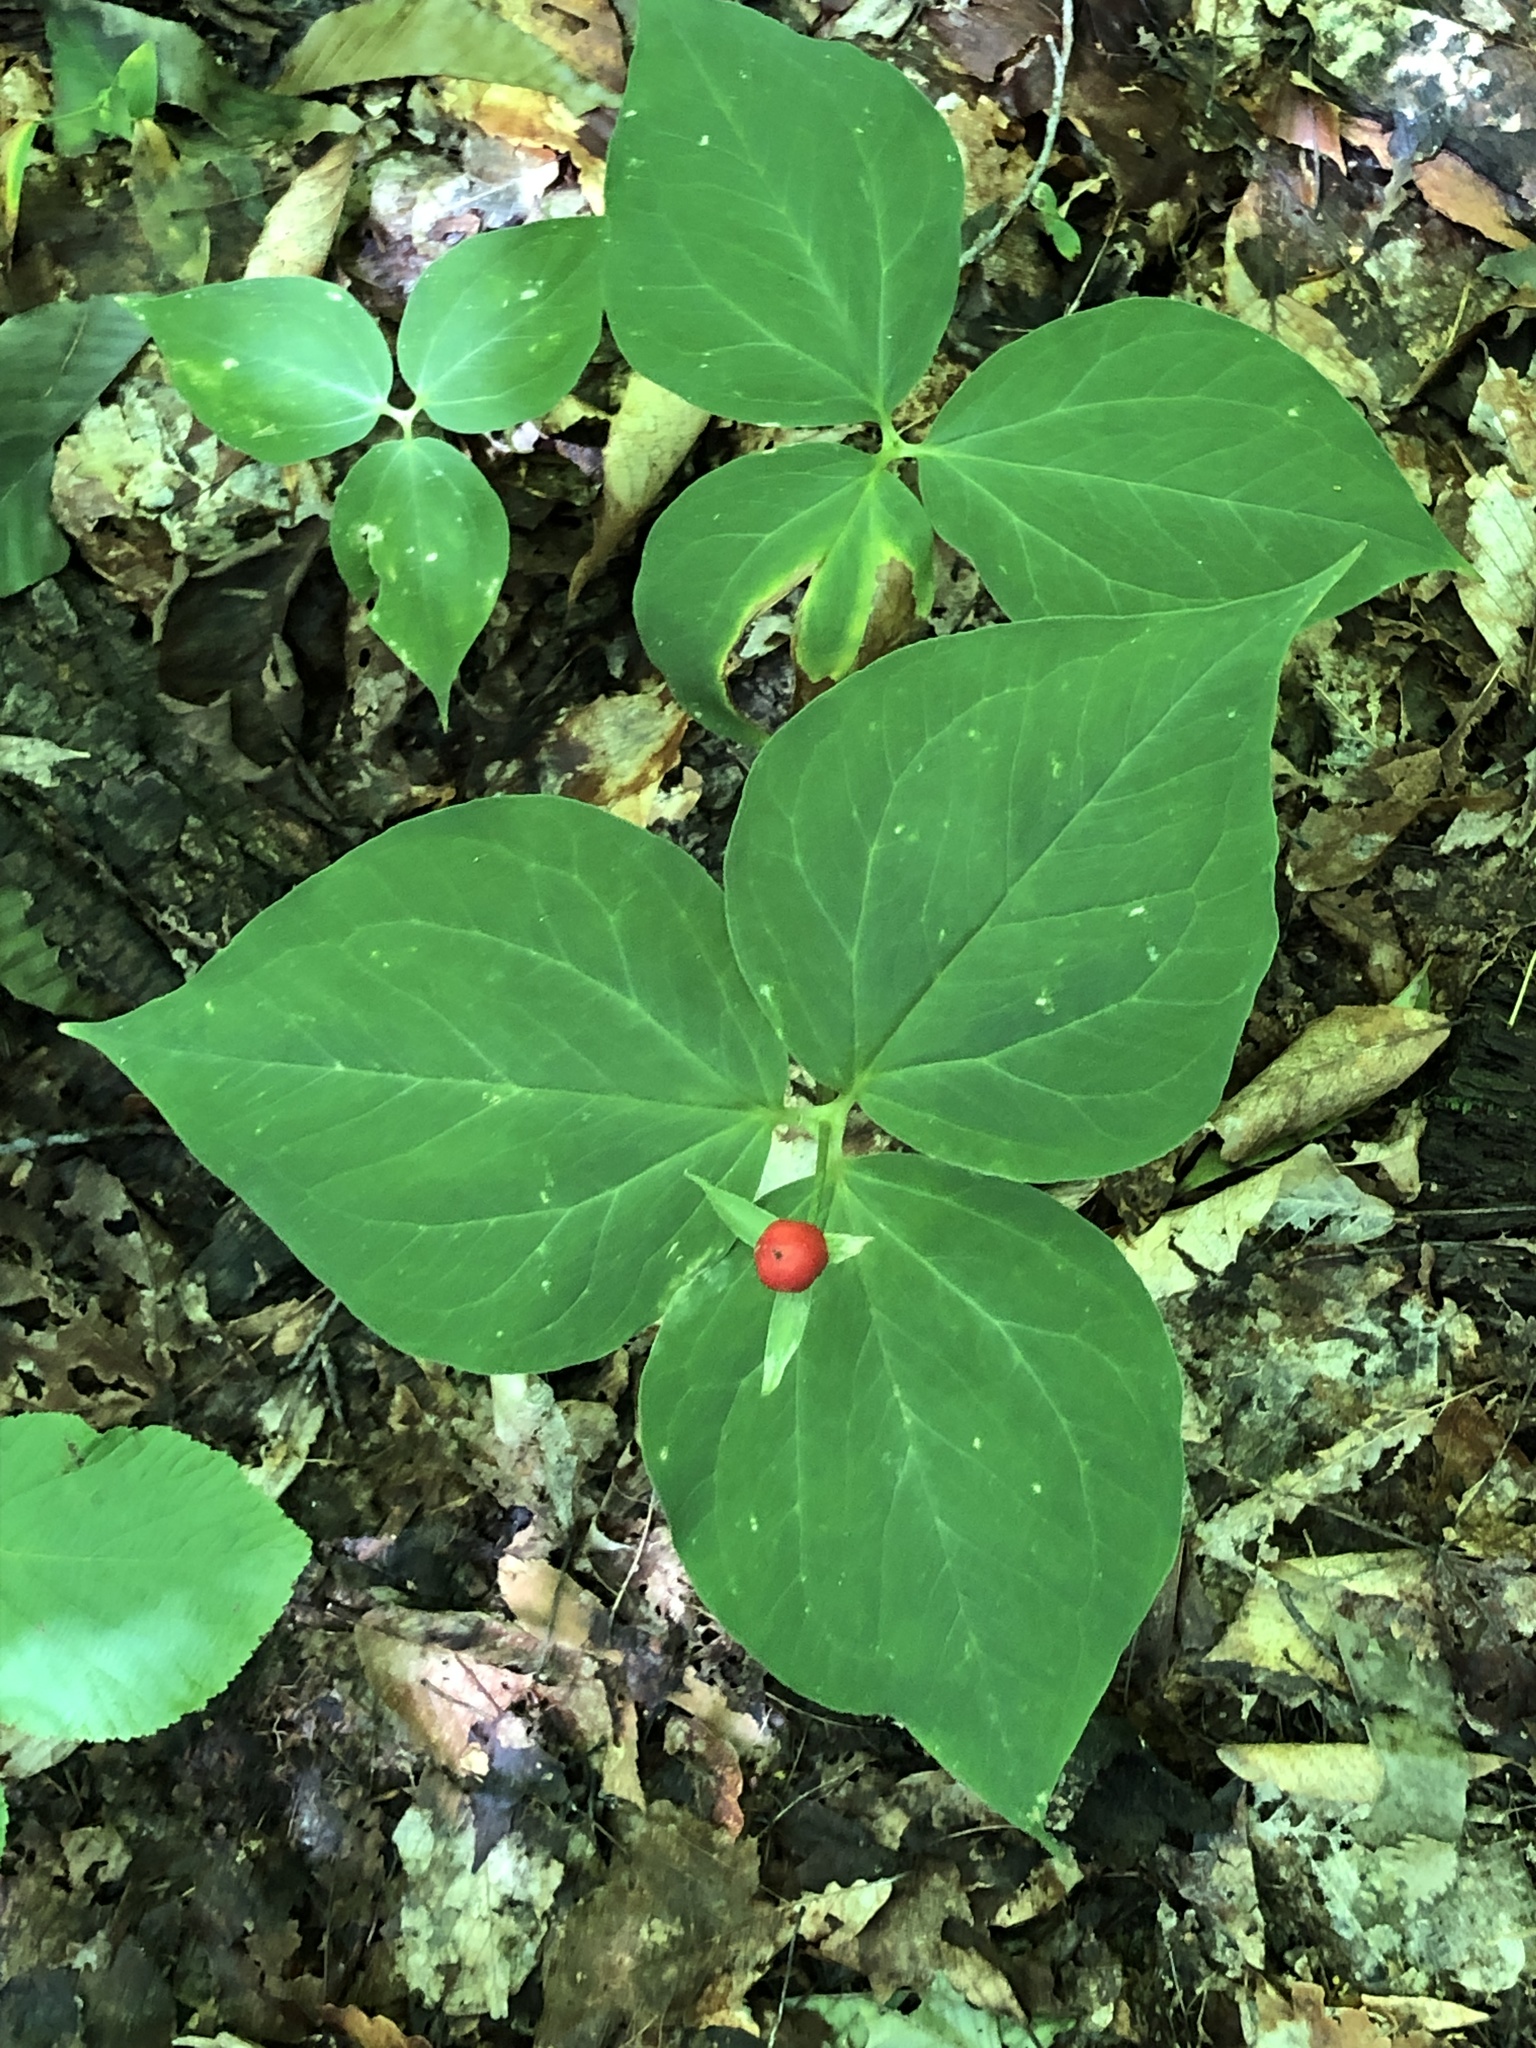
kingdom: Plantae
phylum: Tracheophyta
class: Liliopsida
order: Liliales
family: Melanthiaceae
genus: Trillium
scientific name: Trillium undulatum
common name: Paint trillium
